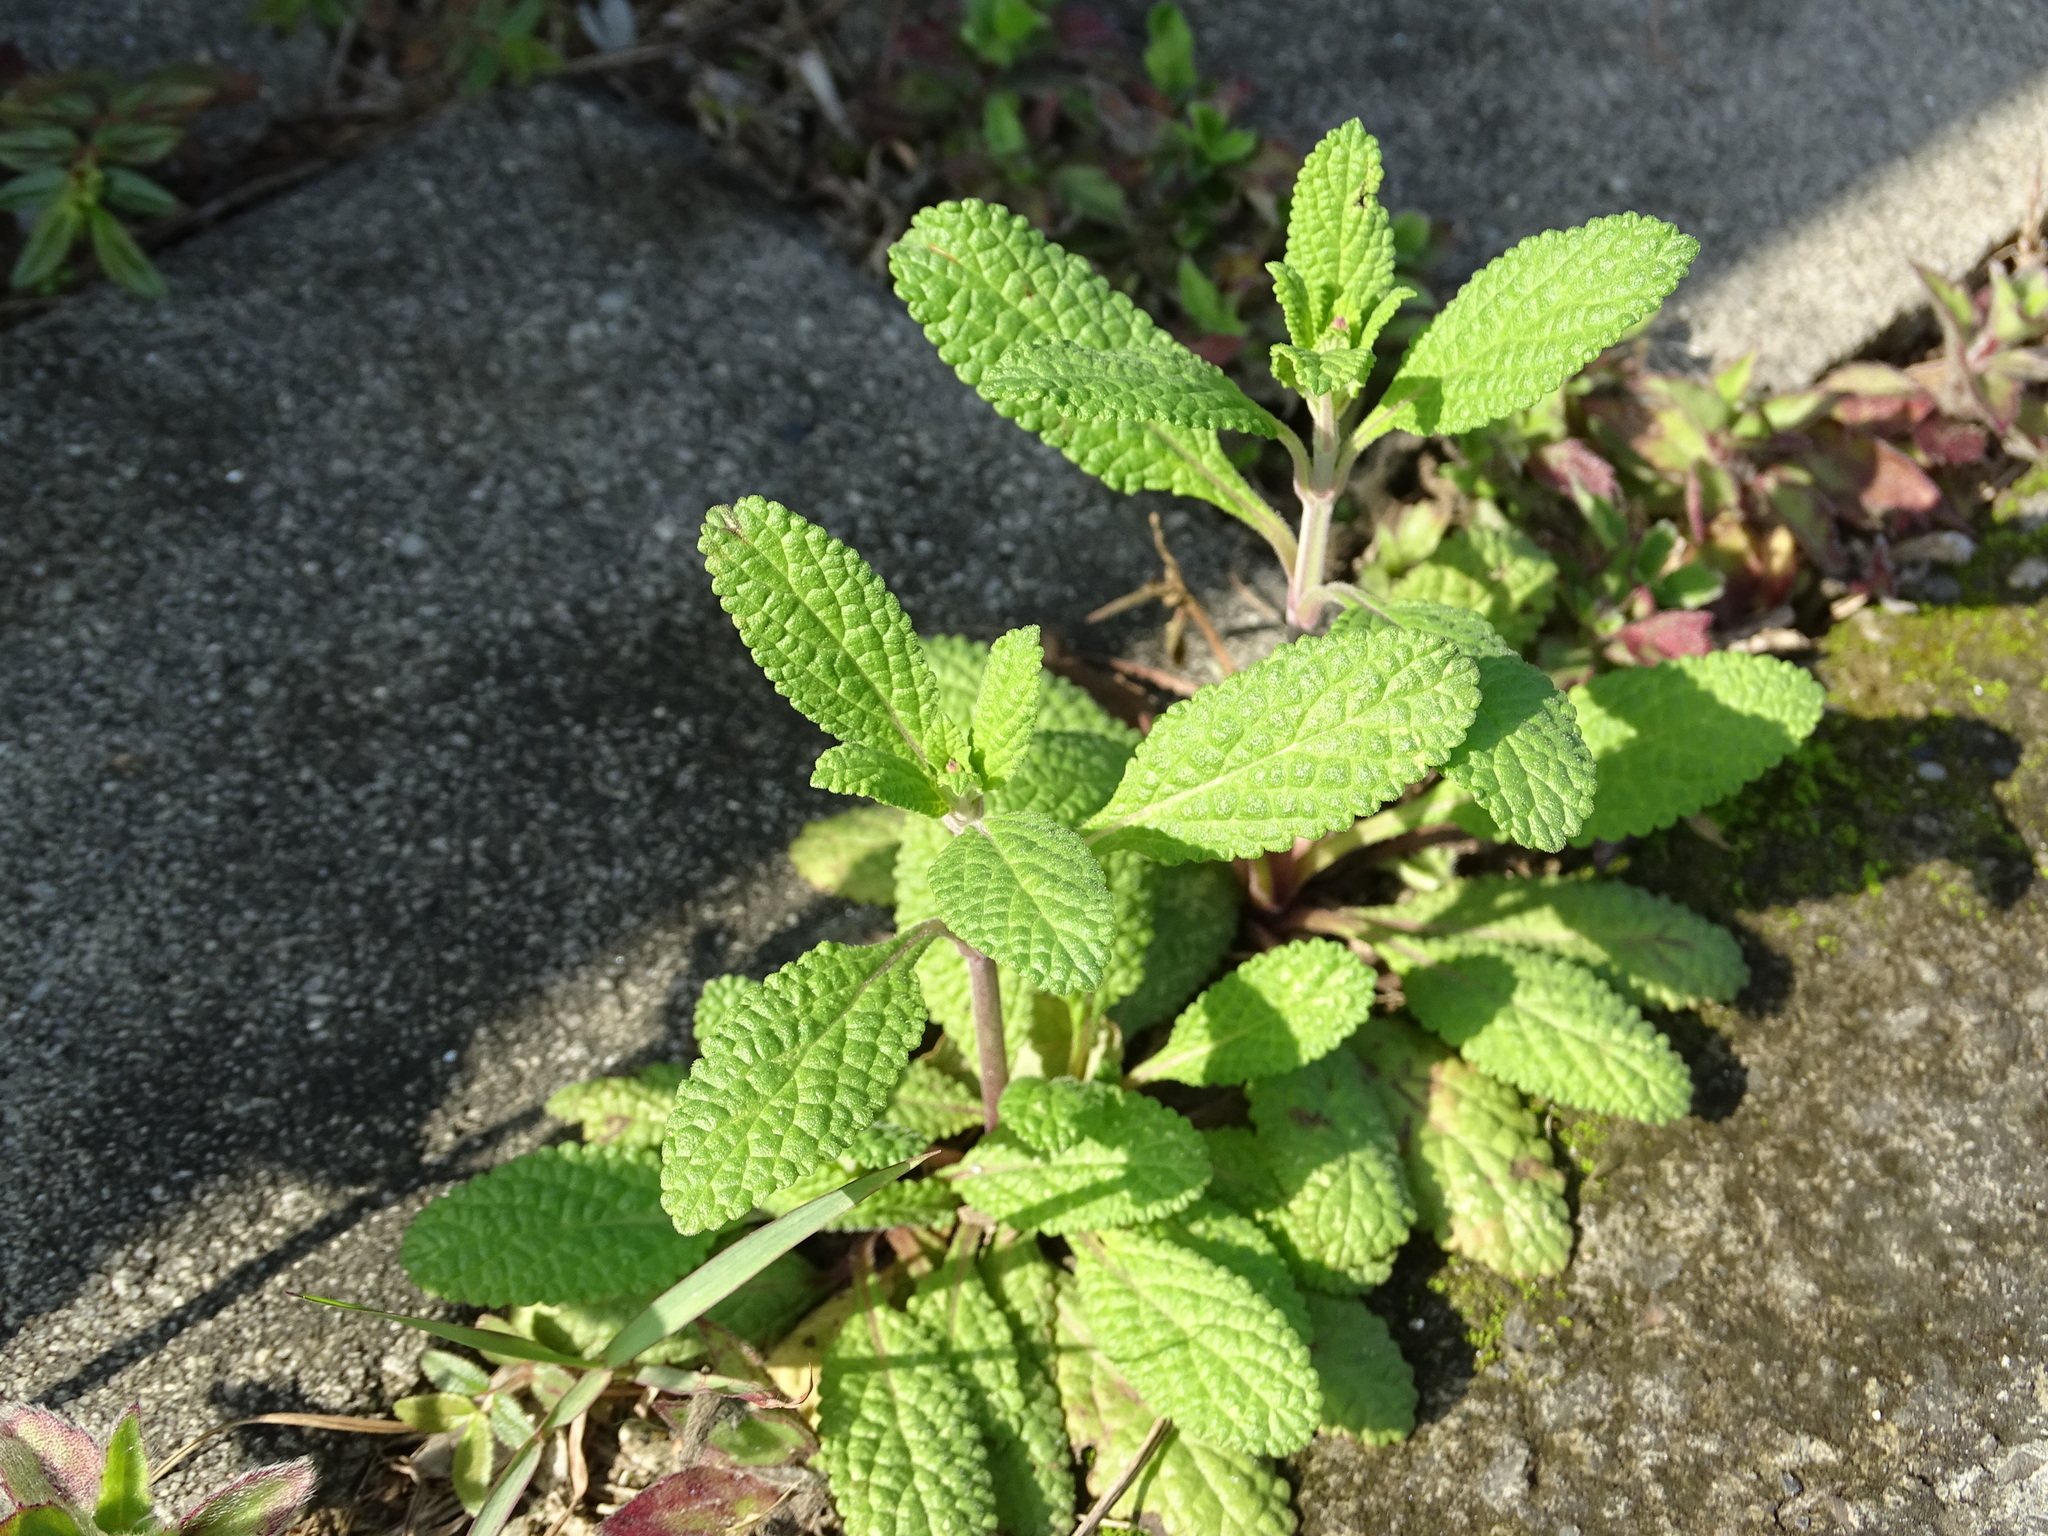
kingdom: Plantae
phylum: Tracheophyta
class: Magnoliopsida
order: Lamiales
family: Lamiaceae
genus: Salvia
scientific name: Salvia plebeia
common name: Australian sage
